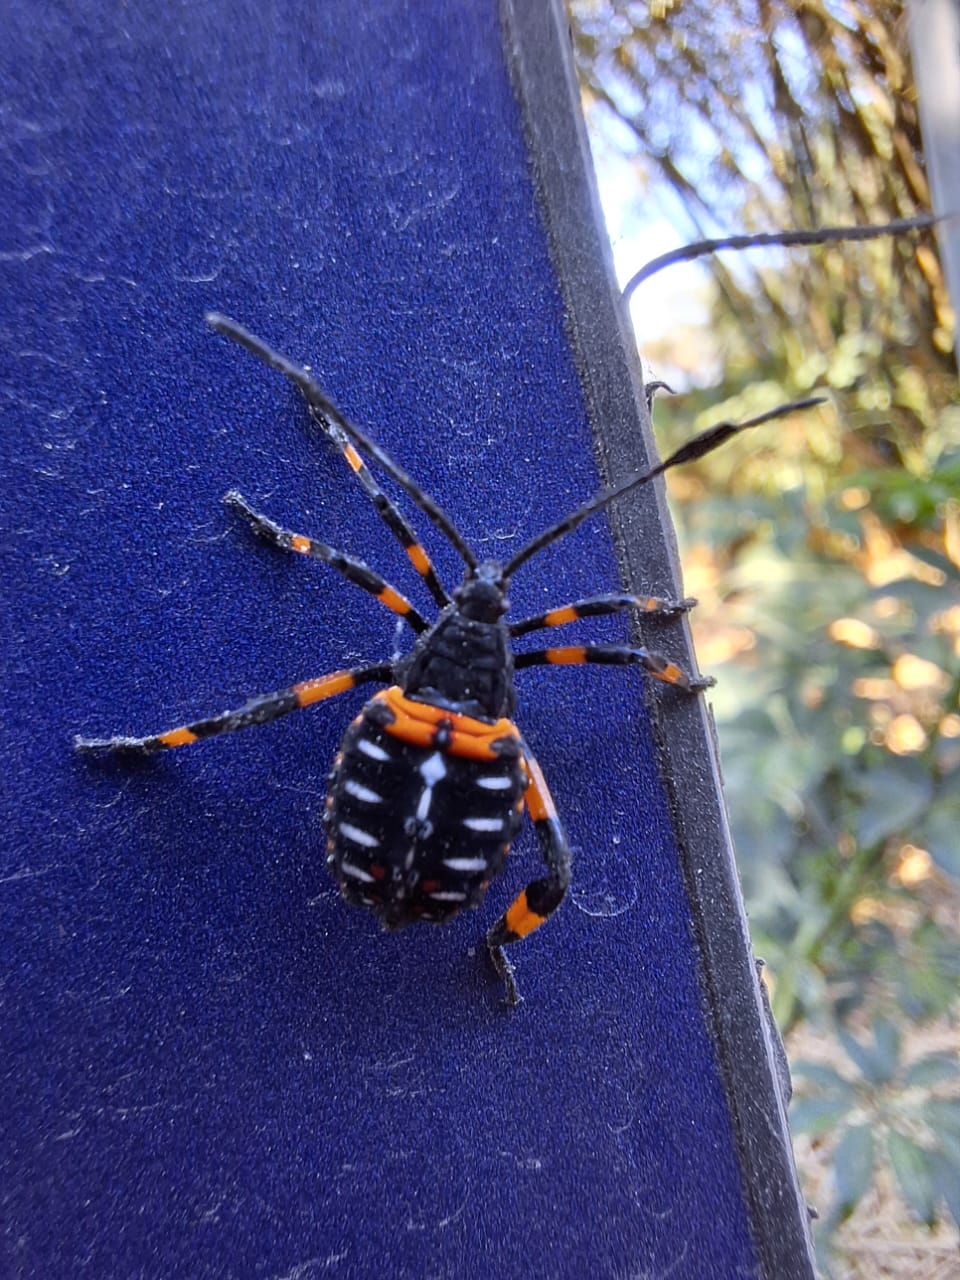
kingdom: Animalia
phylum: Arthropoda
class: Insecta
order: Hemiptera
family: Coreidae
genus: Thasus
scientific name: Thasus
